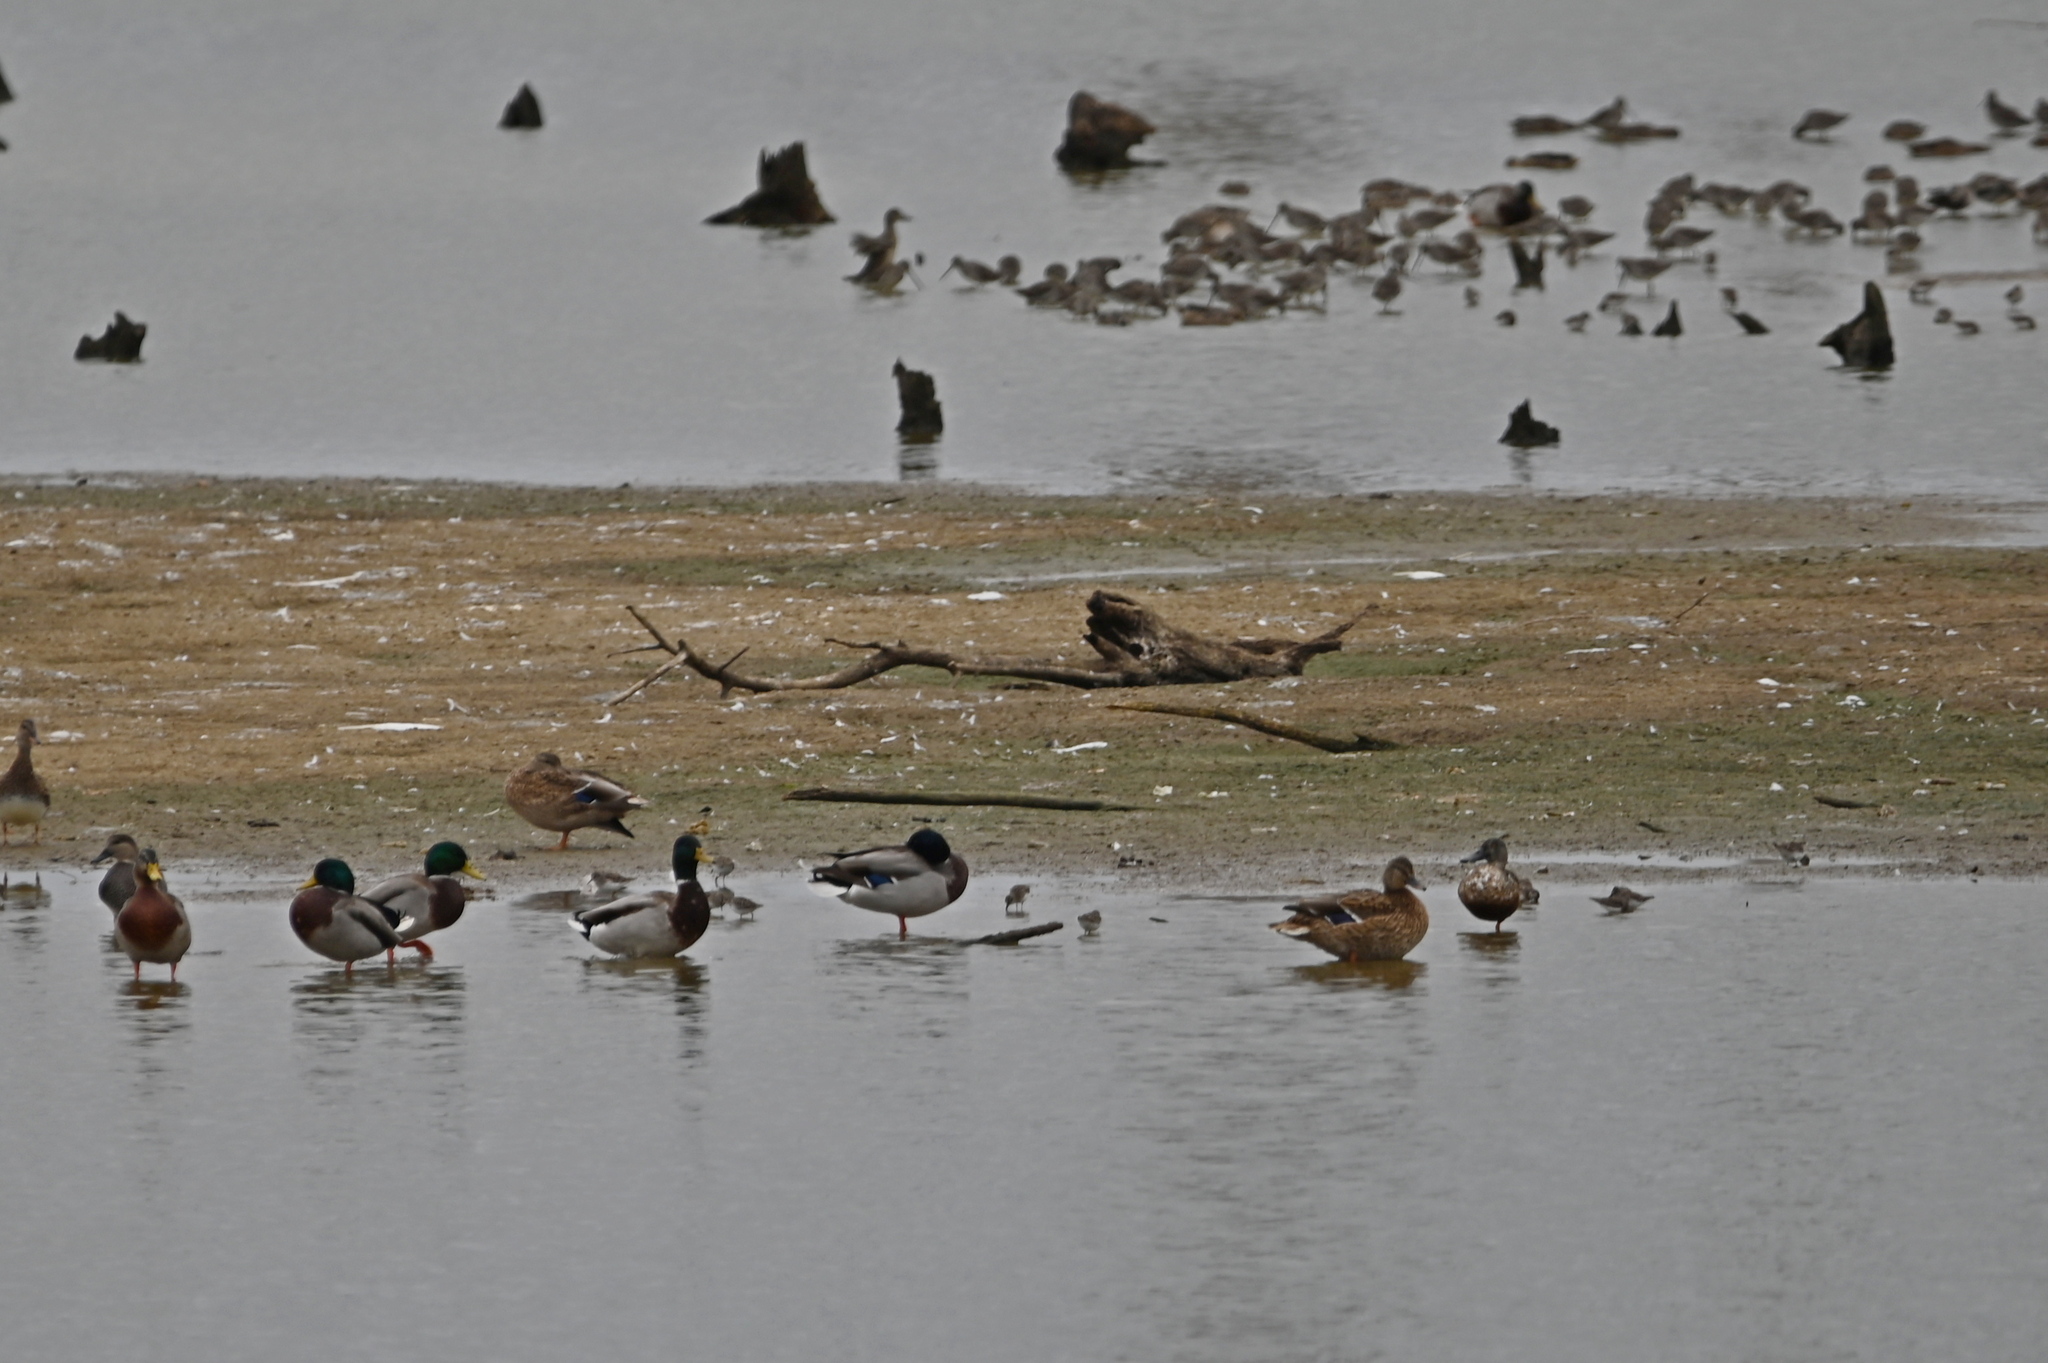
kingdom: Animalia
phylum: Chordata
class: Aves
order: Anseriformes
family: Anatidae
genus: Spatula
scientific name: Spatula clypeata
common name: Northern shoveler
